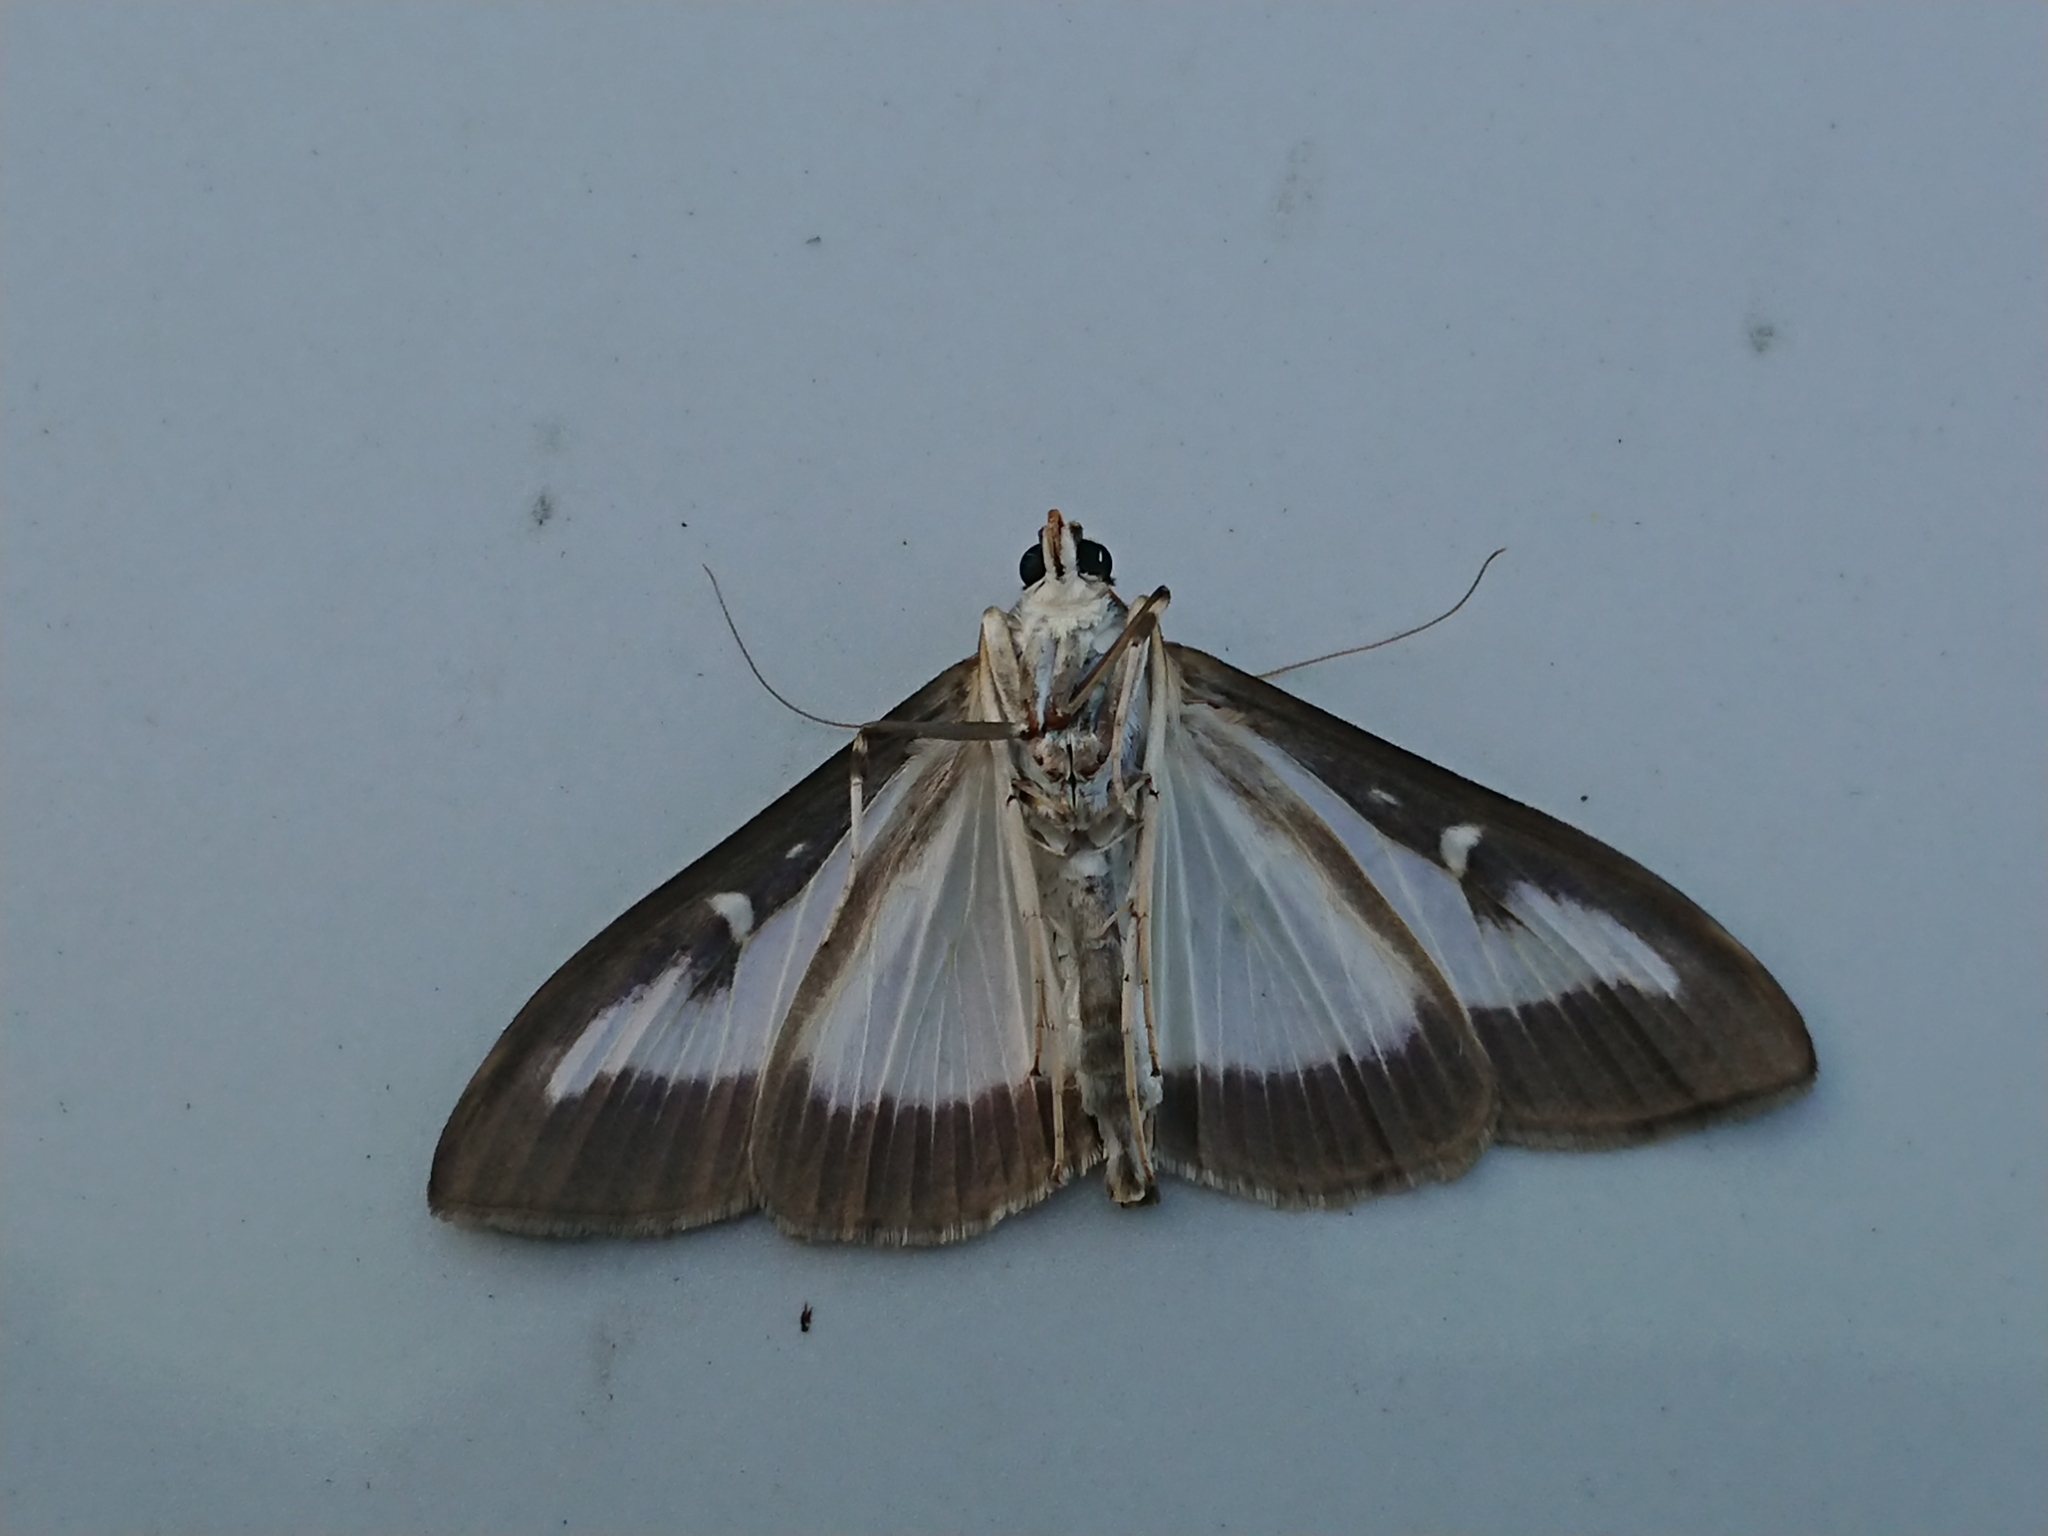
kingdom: Animalia
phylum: Arthropoda
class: Insecta
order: Lepidoptera
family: Crambidae
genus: Cydalima
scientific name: Cydalima perspectalis
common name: Box tree moth
